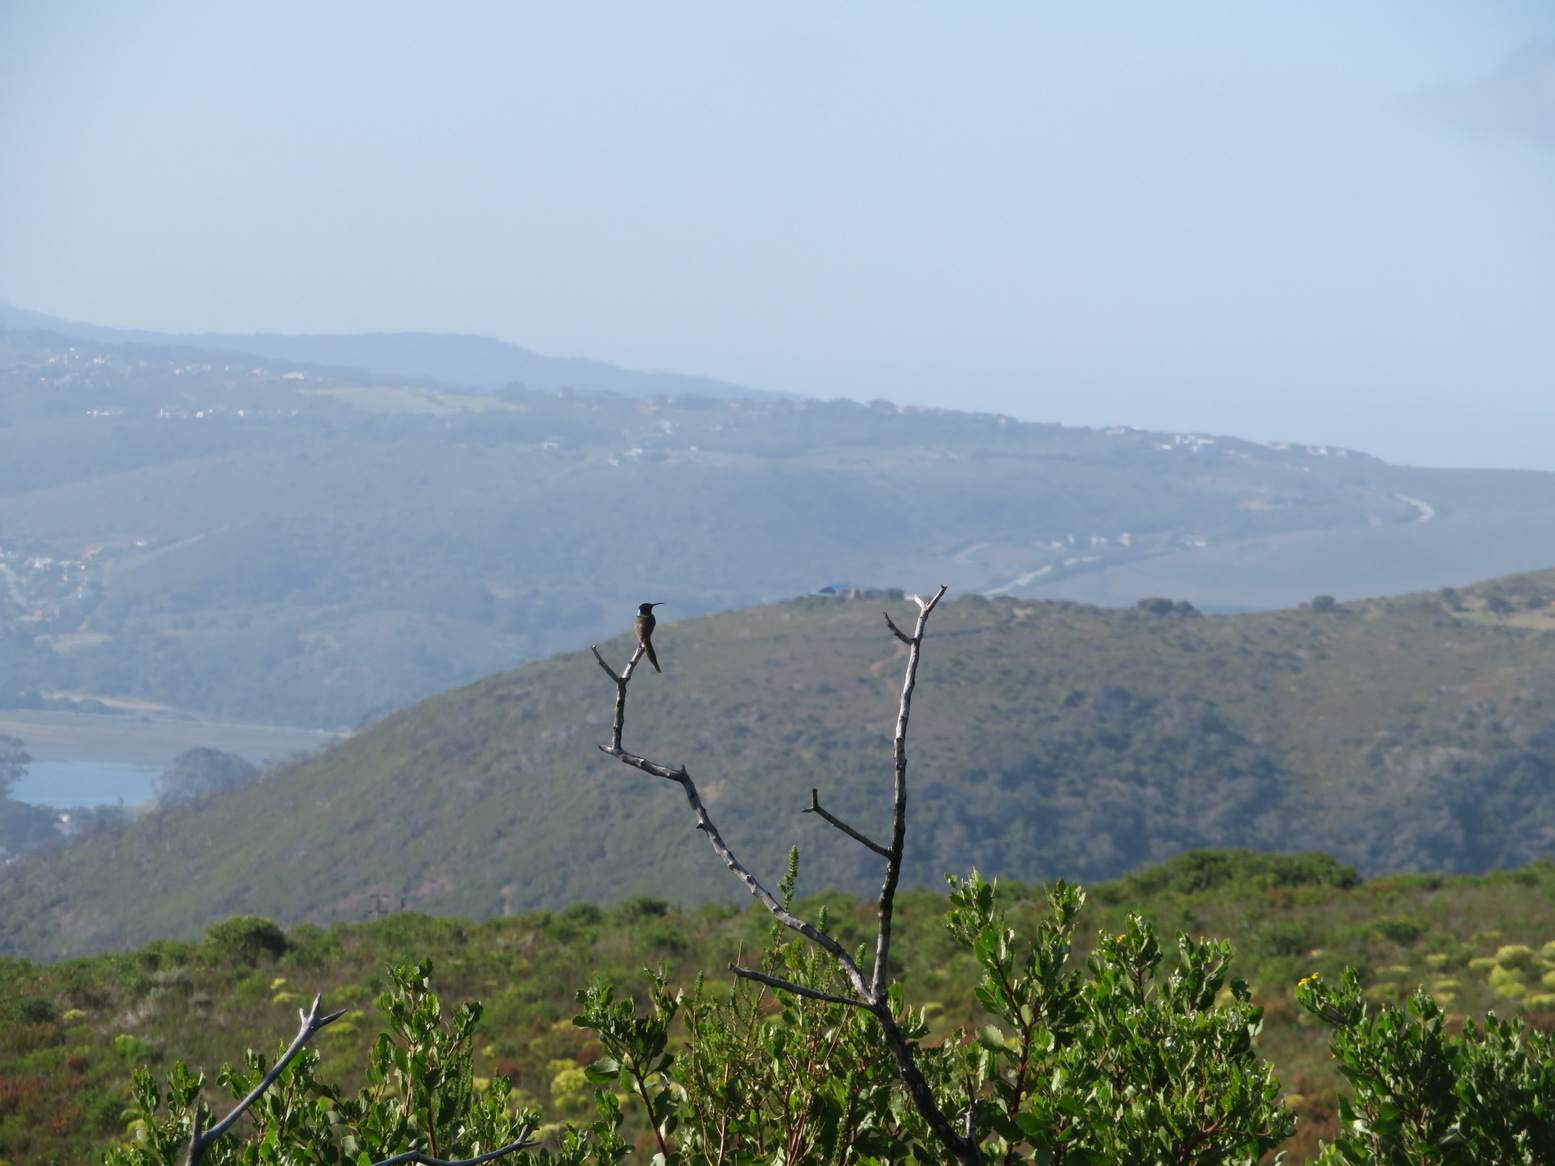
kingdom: Animalia
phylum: Chordata
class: Aves
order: Passeriformes
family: Nectariniidae
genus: Anthobaphes
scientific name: Anthobaphes violacea
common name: Orange-breasted sunbird
